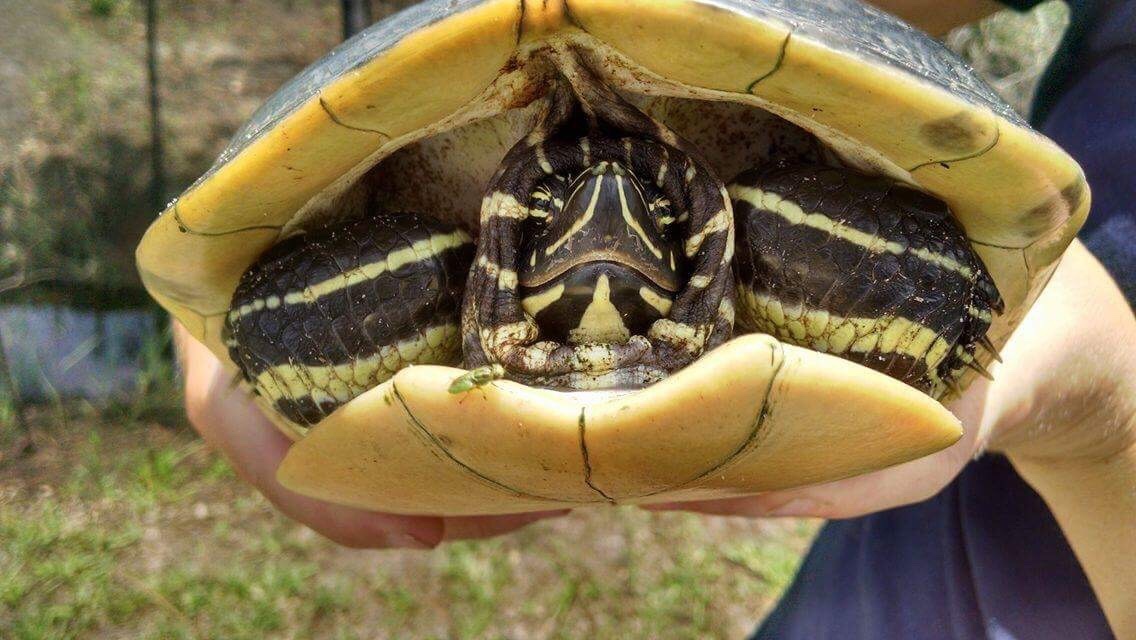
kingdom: Animalia
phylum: Chordata
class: Testudines
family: Emydidae
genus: Pseudemys
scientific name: Pseudemys peninsularis
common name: Peninsula cooter
